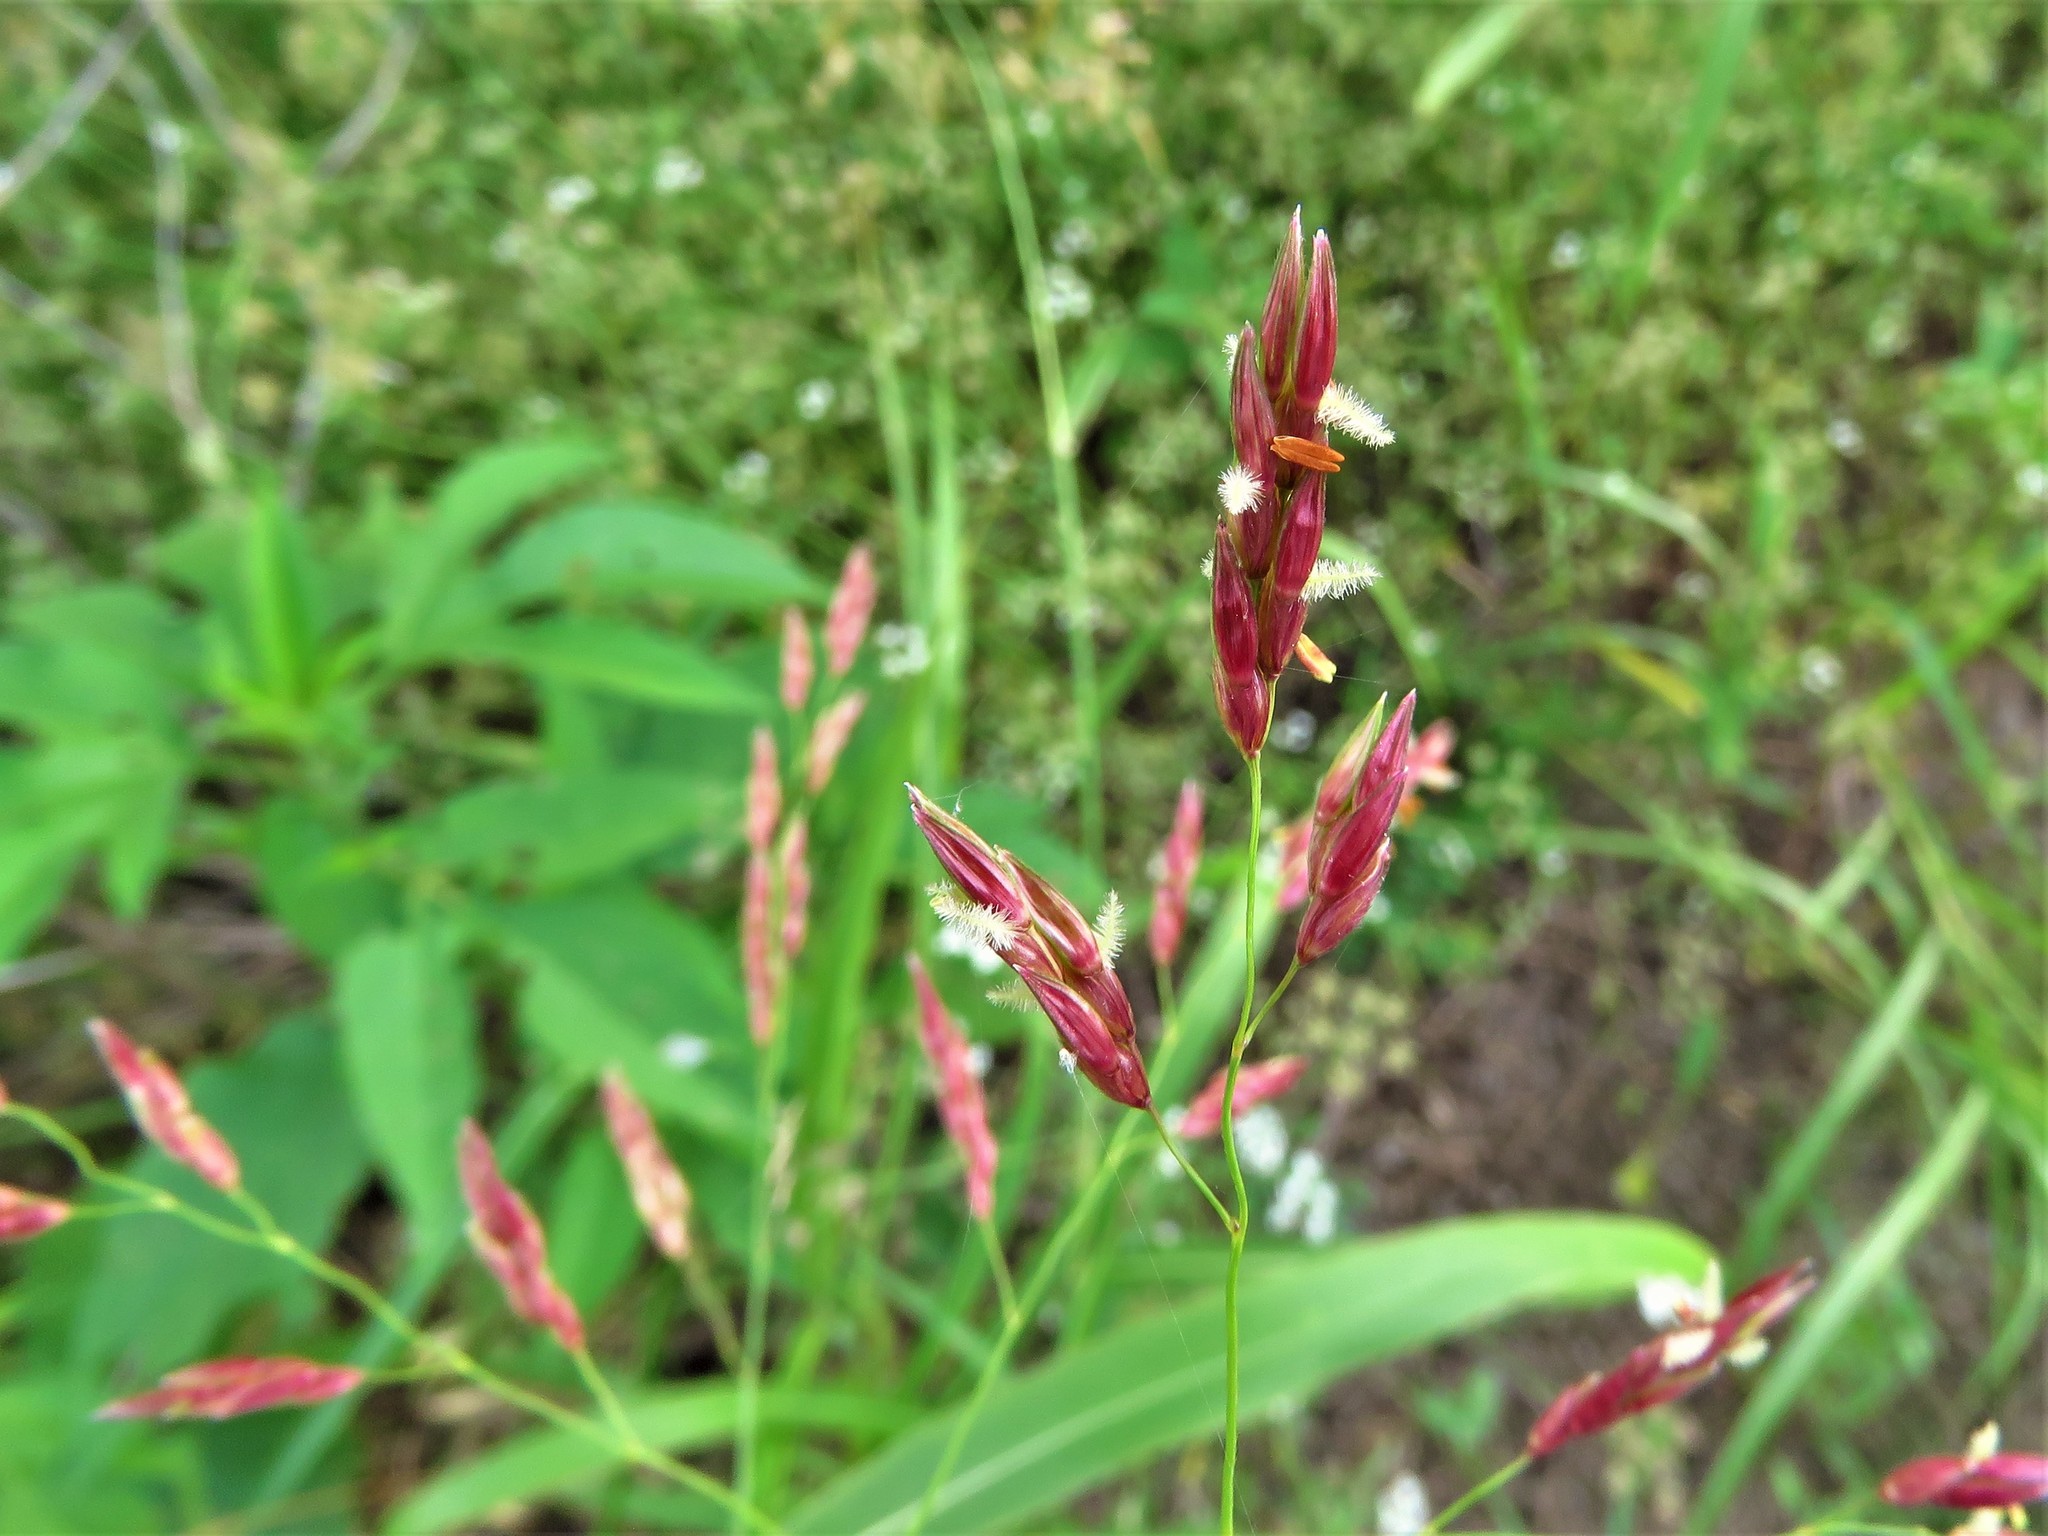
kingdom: Plantae
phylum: Tracheophyta
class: Liliopsida
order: Poales
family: Poaceae
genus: Sorghum
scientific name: Sorghum halepense
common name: Johnson-grass
